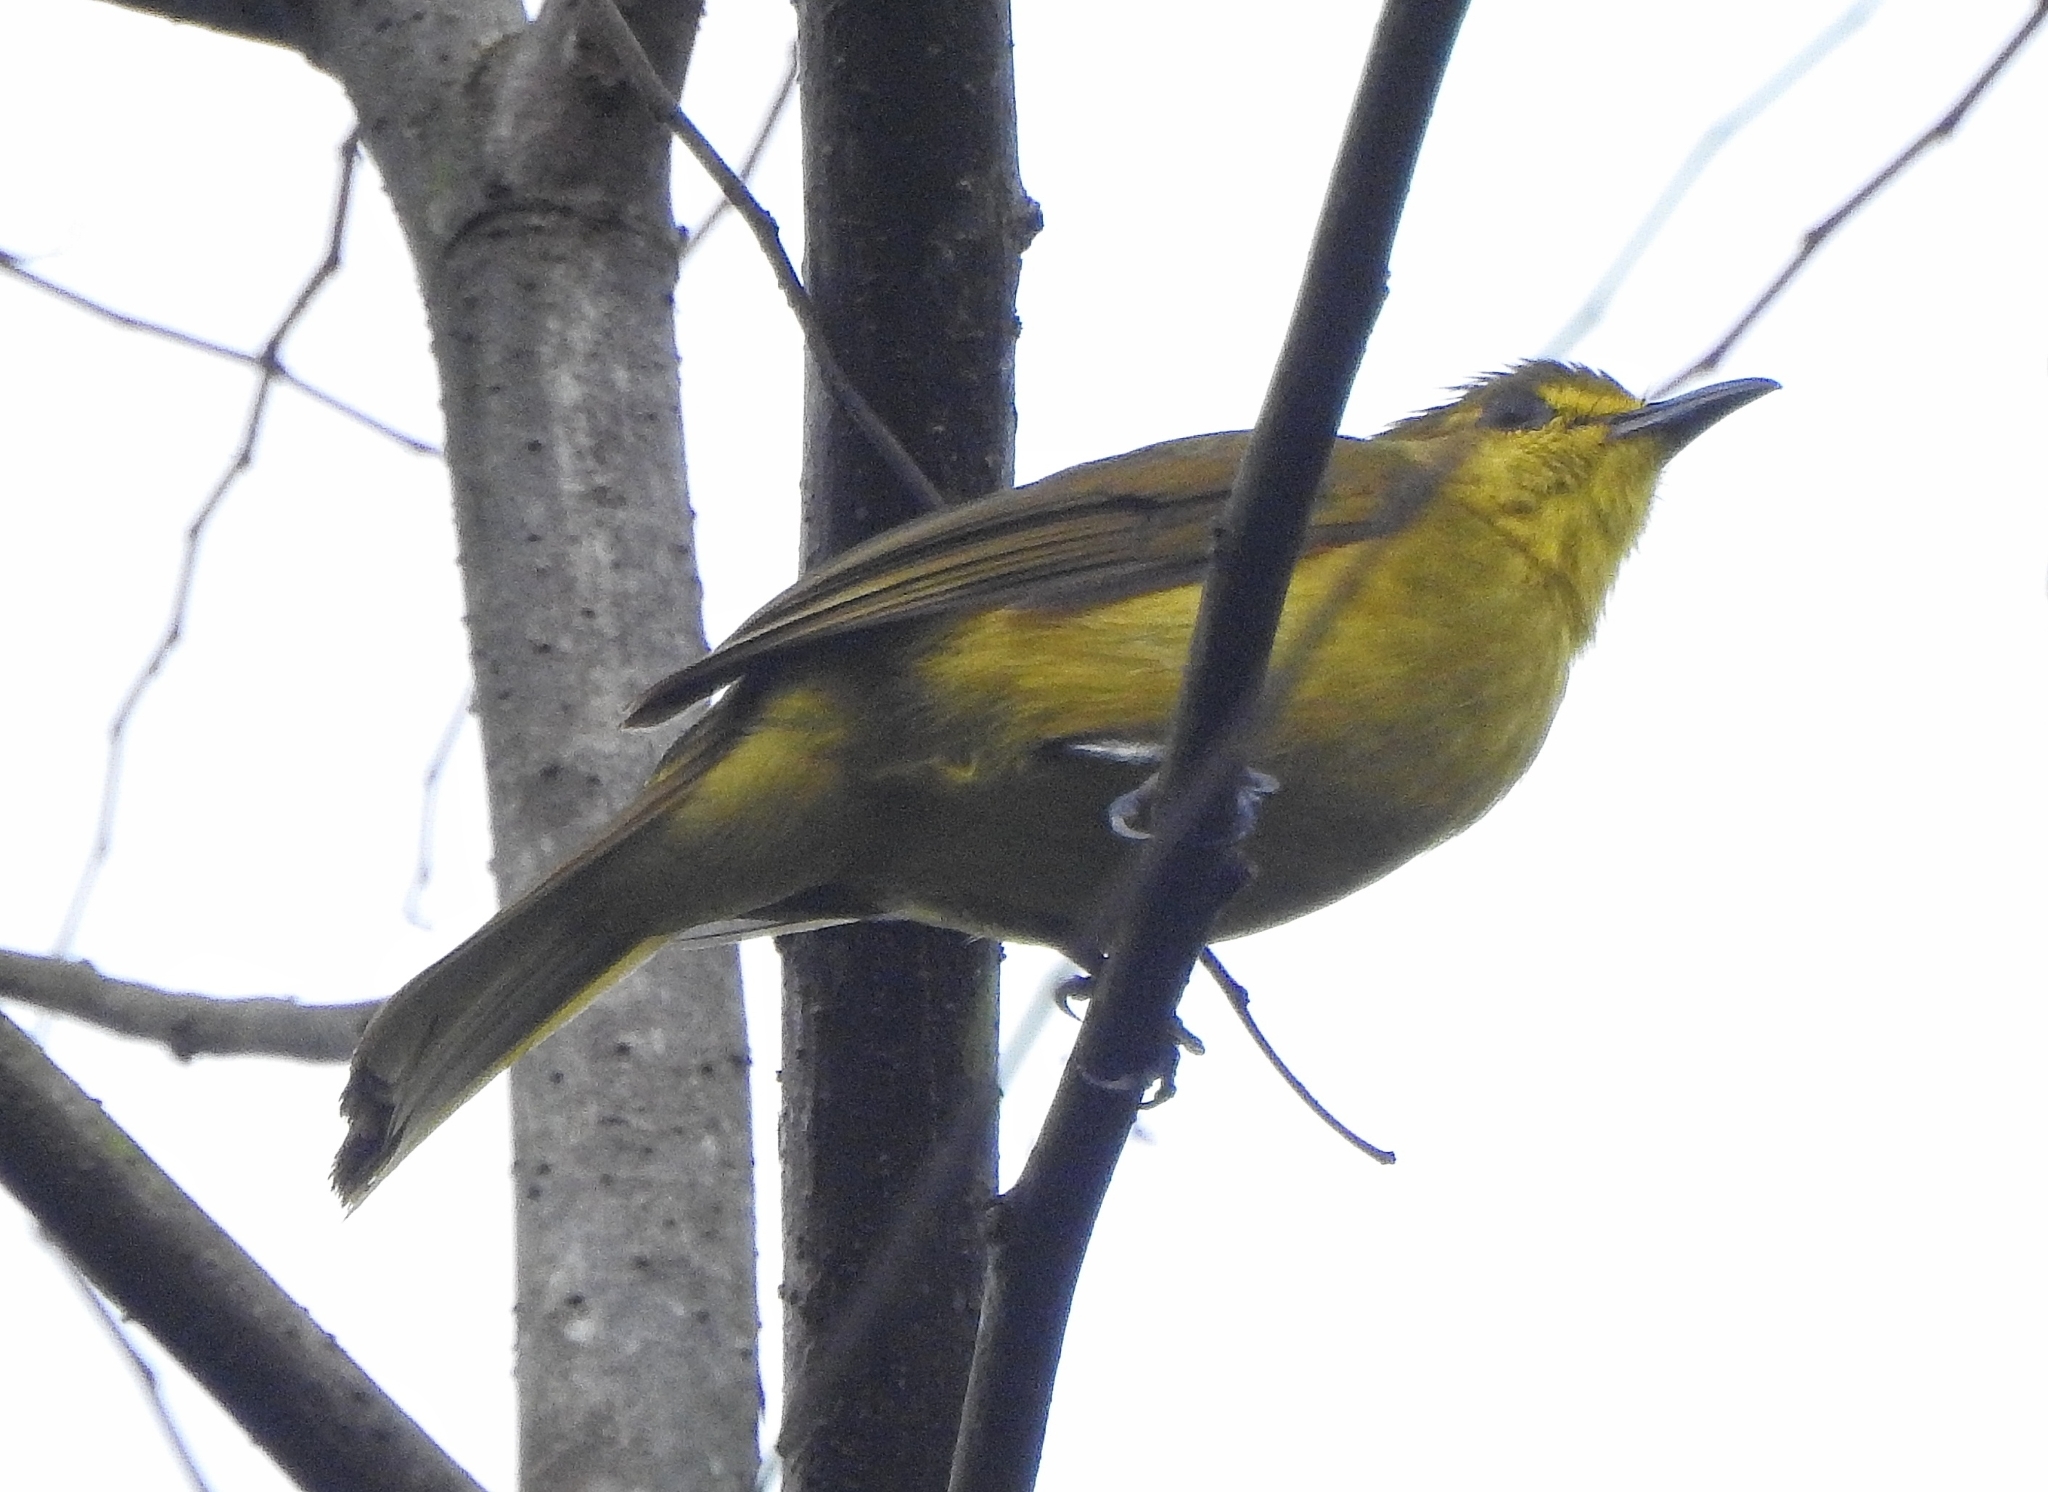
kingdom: Animalia
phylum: Chordata
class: Aves
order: Passeriformes
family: Pycnonotidae
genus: Acritillas
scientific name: Acritillas indica
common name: Yellow-browed bulbul
